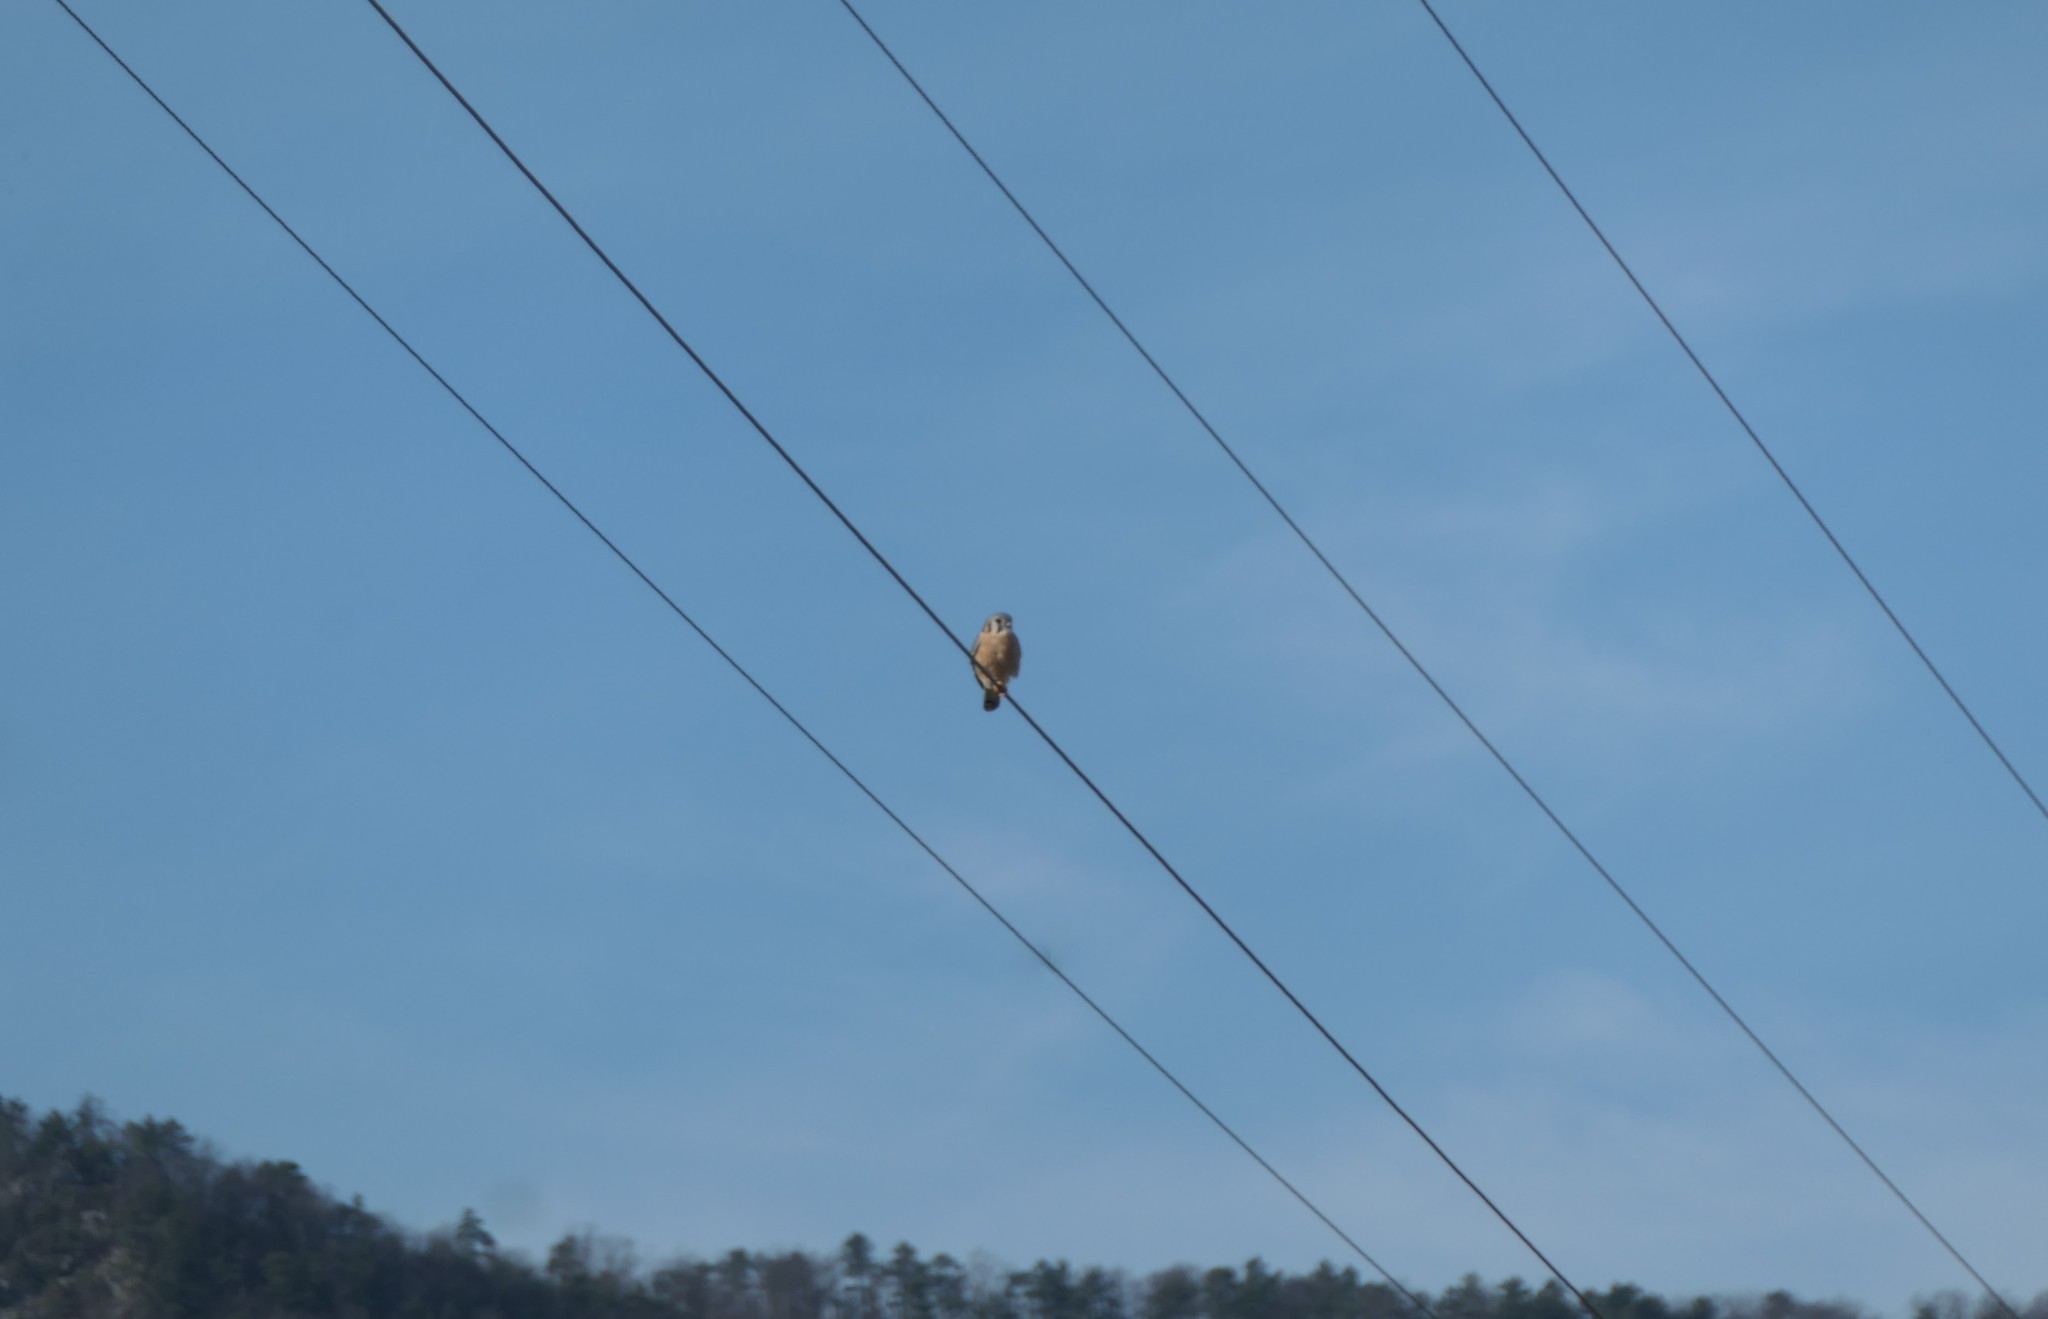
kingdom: Animalia
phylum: Chordata
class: Aves
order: Falconiformes
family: Falconidae
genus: Falco
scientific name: Falco sparverius
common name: American kestrel
